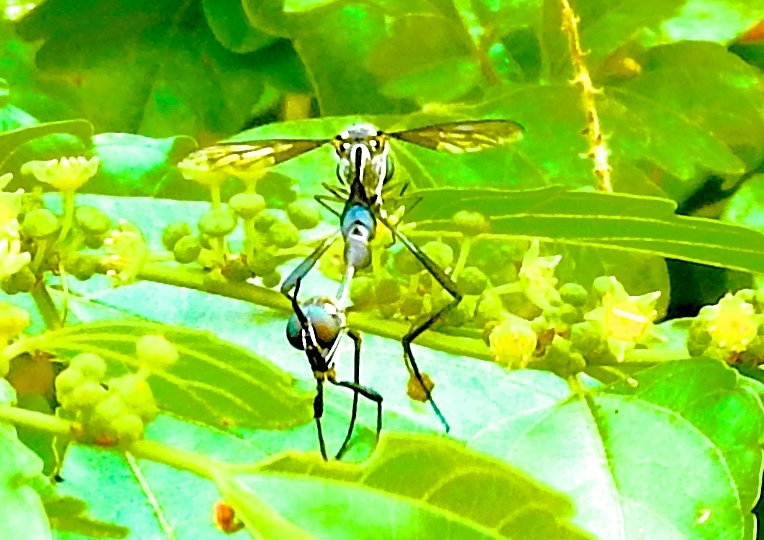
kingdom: Animalia
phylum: Arthropoda
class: Insecta
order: Diptera
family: Bombyliidae
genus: Systropus
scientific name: Systropus
